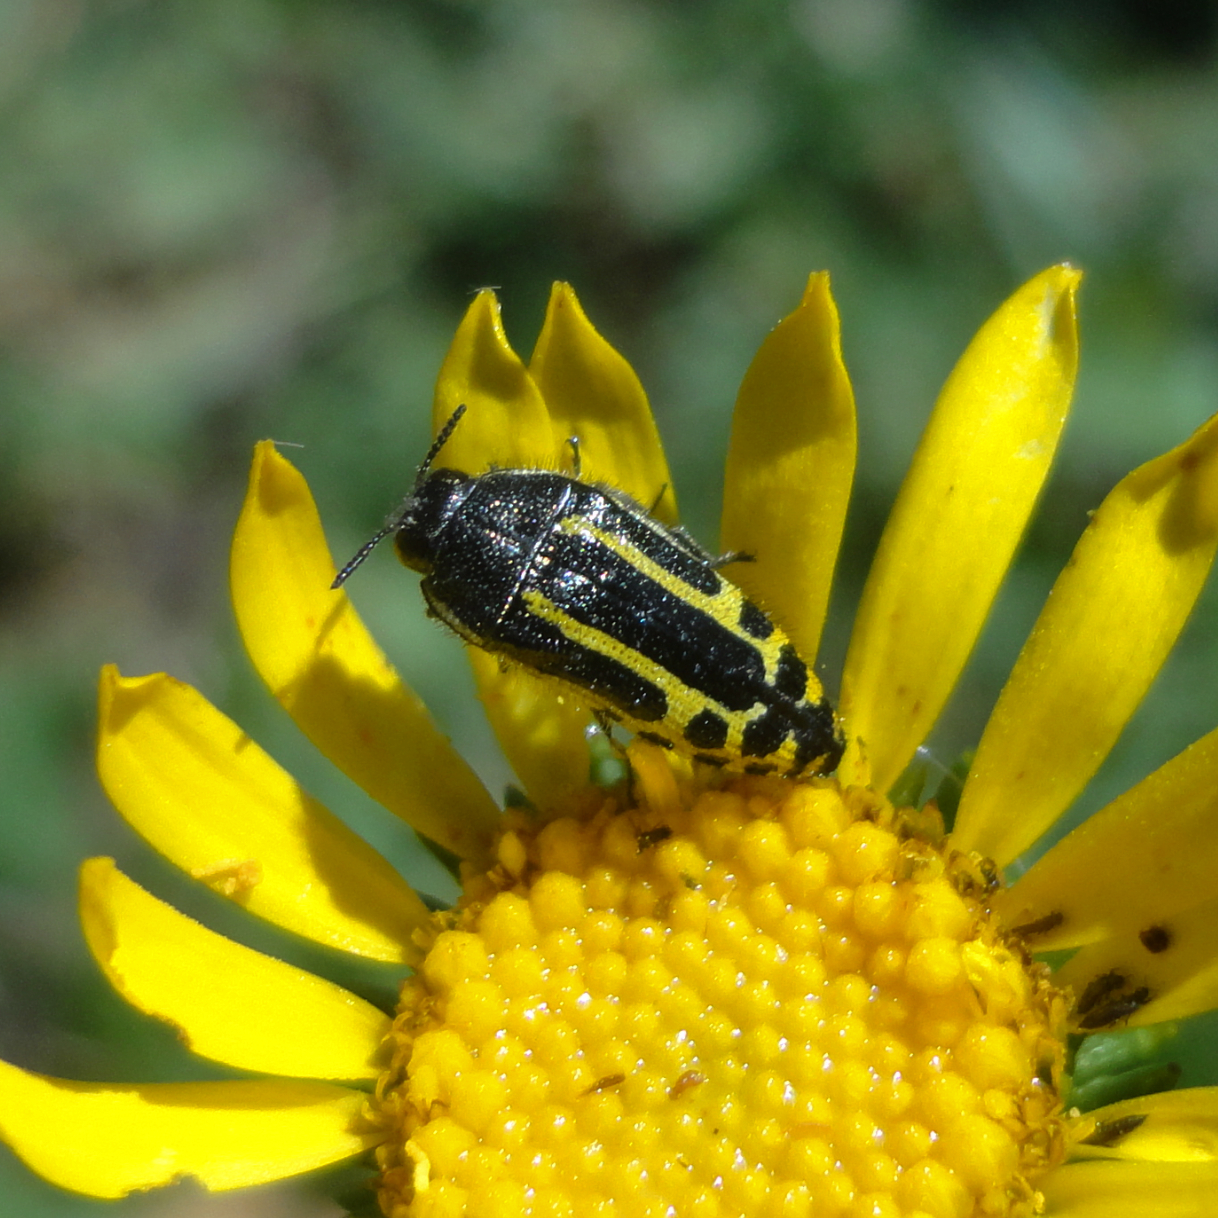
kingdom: Animalia
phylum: Arthropoda
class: Insecta
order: Coleoptera
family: Buprestidae
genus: Acmaeodera
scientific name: Acmaeodera scalaris
